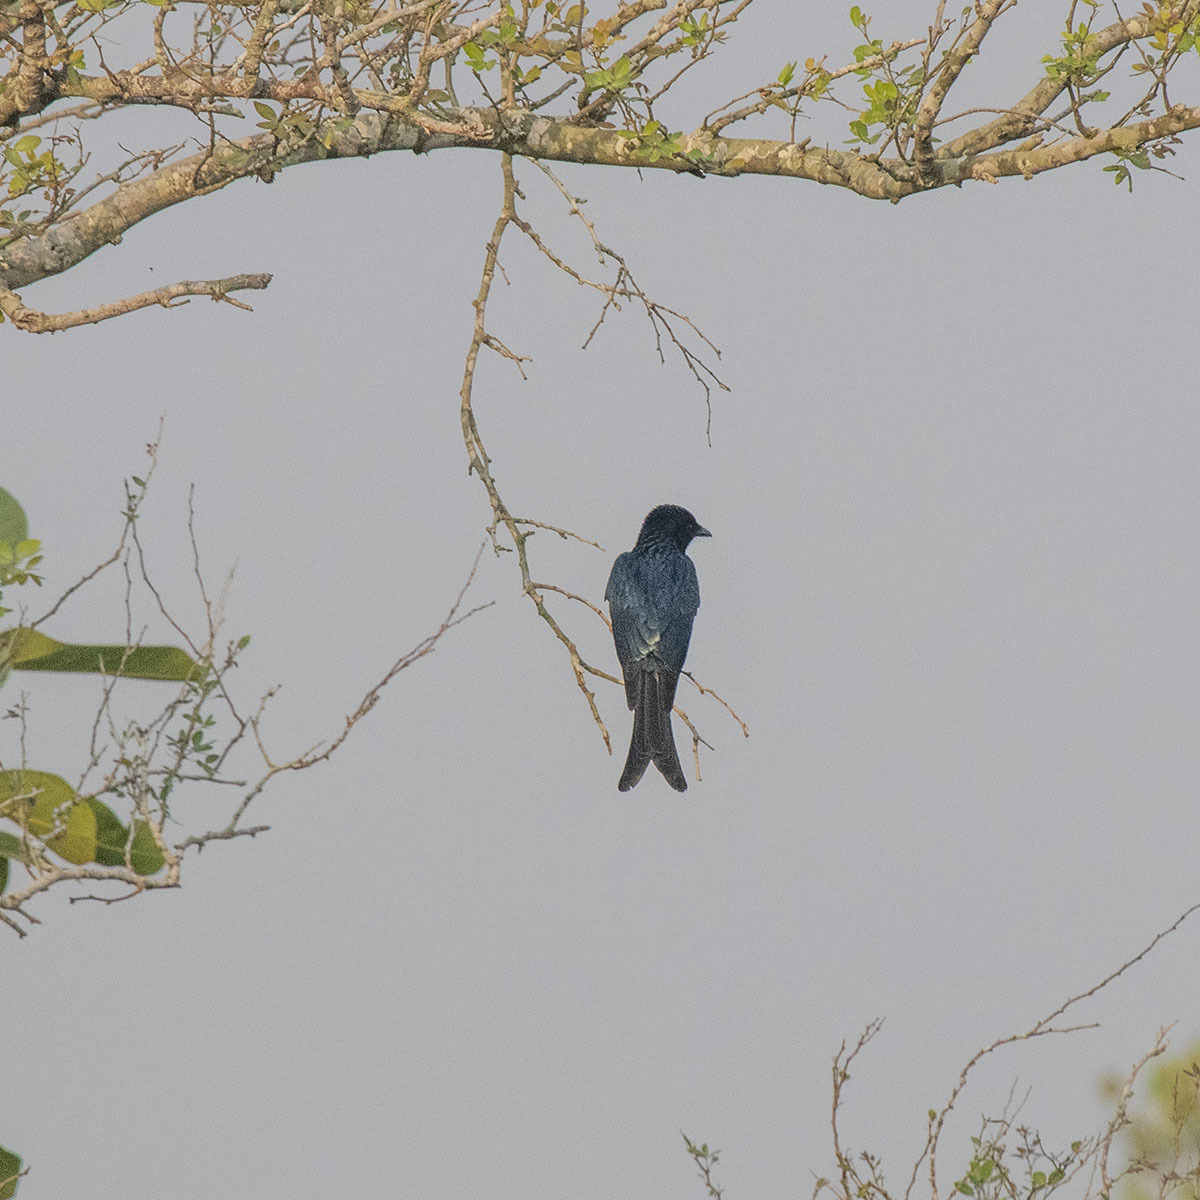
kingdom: Animalia
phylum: Chordata
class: Aves
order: Passeriformes
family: Dicruridae
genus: Dicrurus
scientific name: Dicrurus macrocercus
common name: Black drongo
